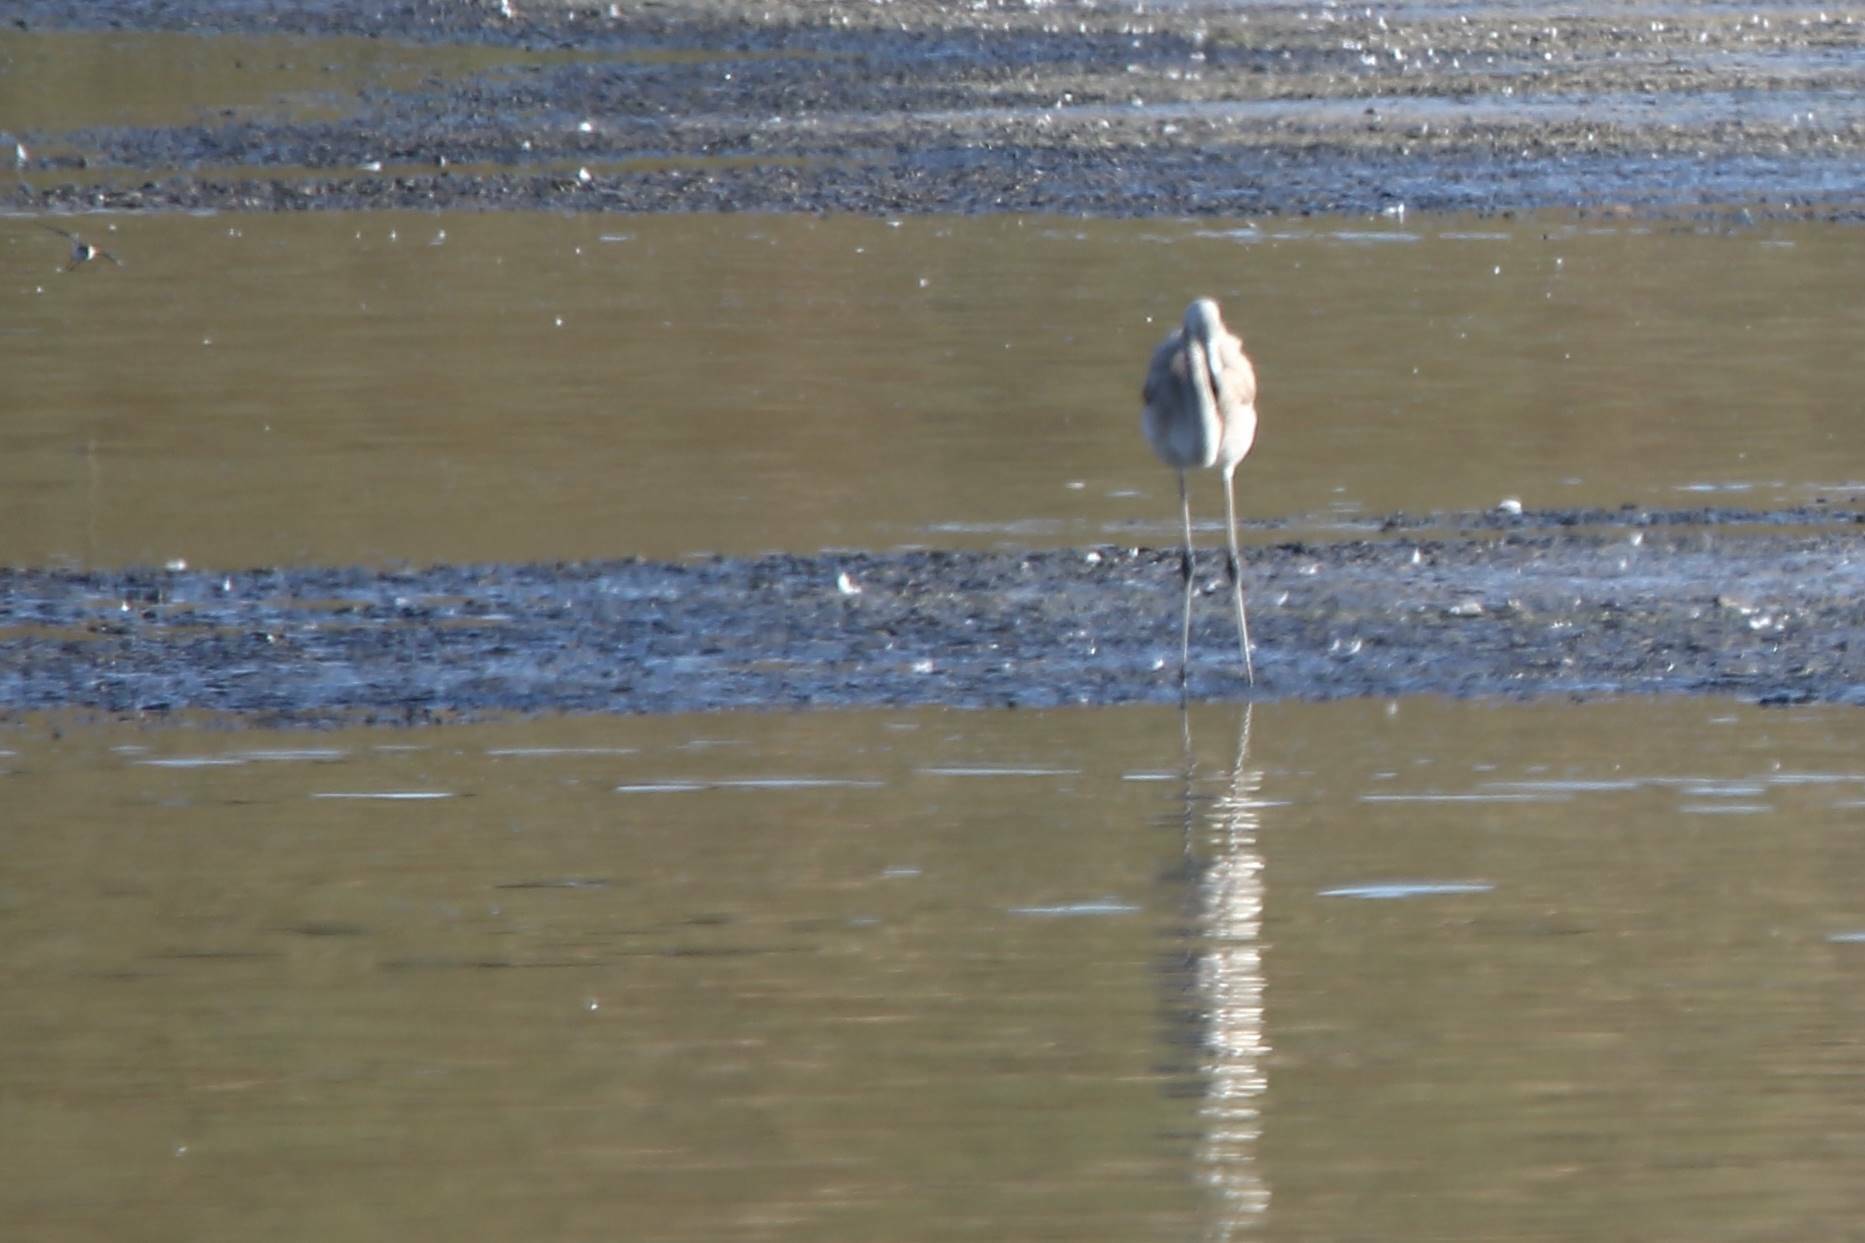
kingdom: Animalia
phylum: Chordata
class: Aves
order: Phoenicopteriformes
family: Phoenicopteridae
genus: Phoenicopterus
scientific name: Phoenicopterus roseus
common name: Greater flamingo
